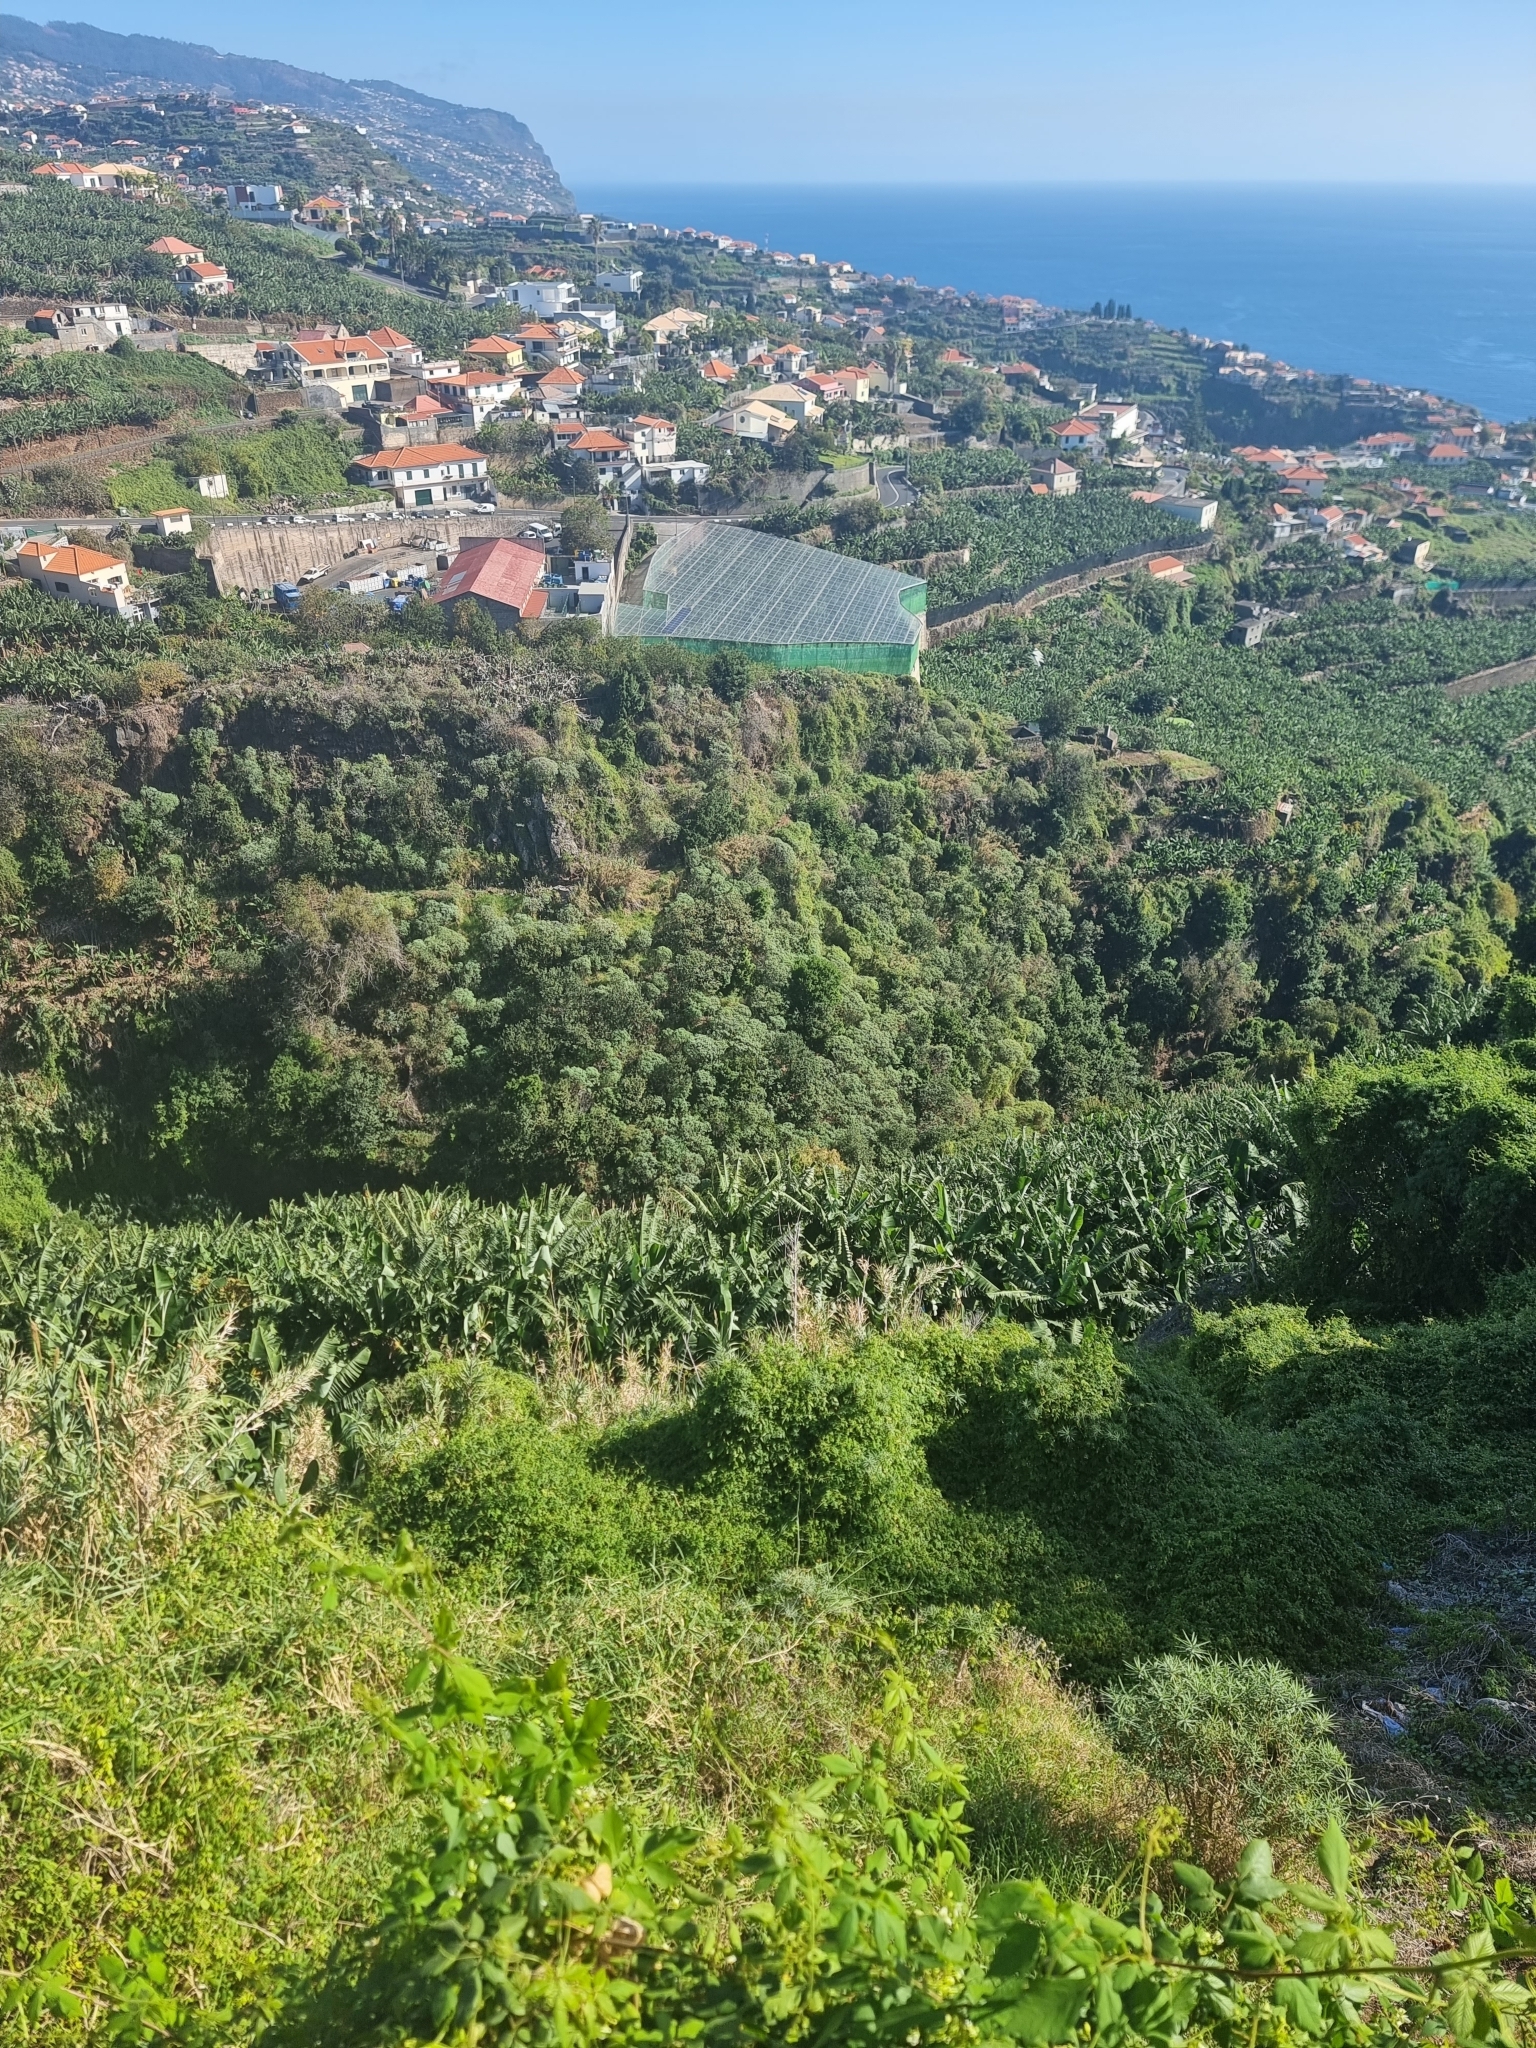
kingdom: Plantae
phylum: Tracheophyta
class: Magnoliopsida
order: Malpighiales
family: Euphorbiaceae
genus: Euphorbia
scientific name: Euphorbia piscatoria
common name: Fish-stunning spurge
